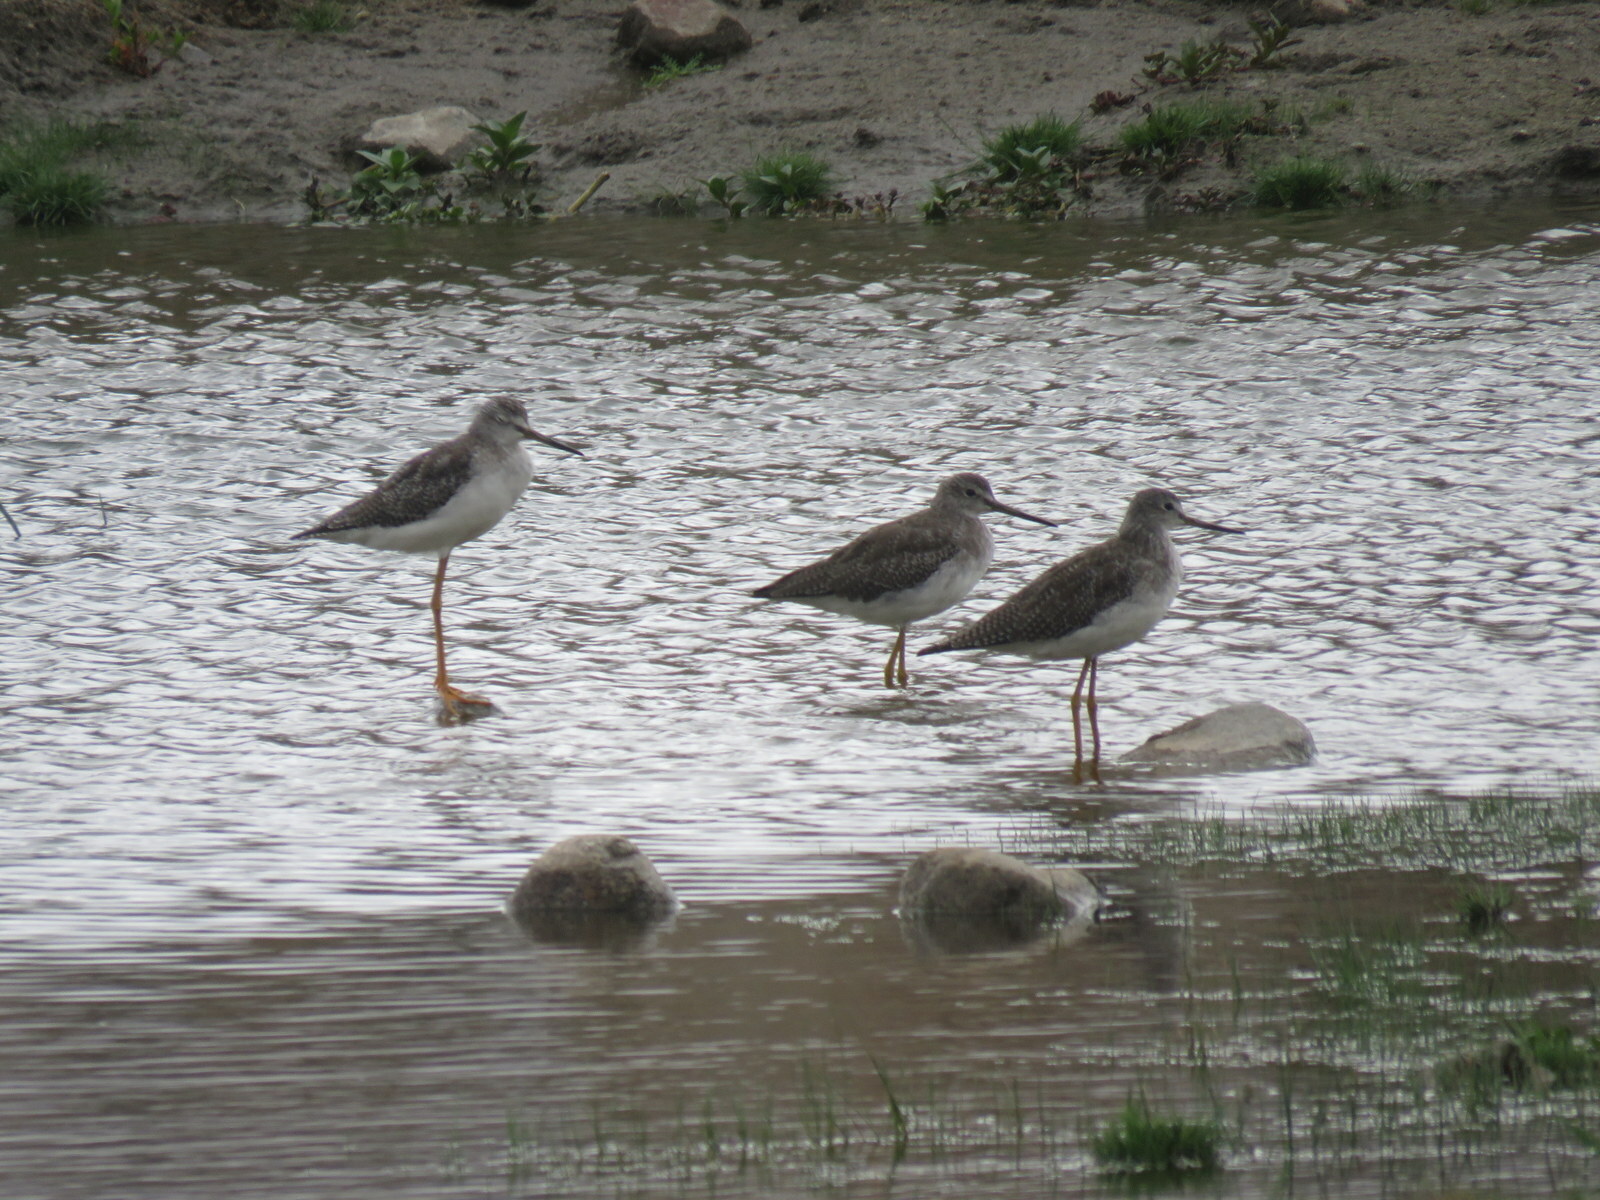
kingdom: Animalia
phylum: Chordata
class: Aves
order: Charadriiformes
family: Scolopacidae
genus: Tringa
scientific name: Tringa melanoleuca
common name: Greater yellowlegs
